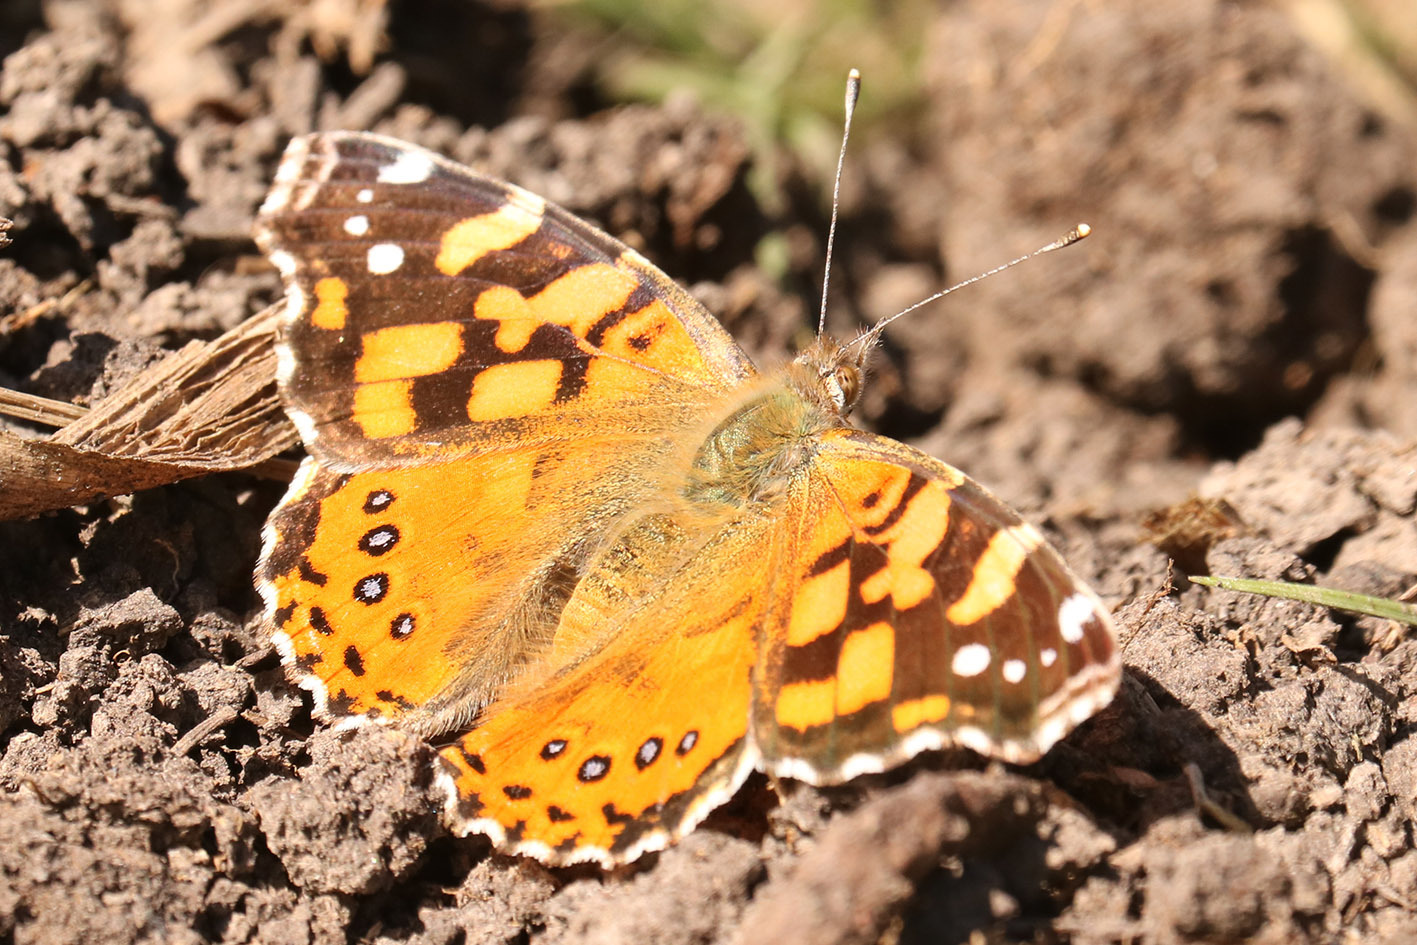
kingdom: Animalia
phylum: Arthropoda
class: Insecta
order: Lepidoptera
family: Nymphalidae
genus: Vanessa
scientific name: Vanessa carye
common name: Subtropical lady
